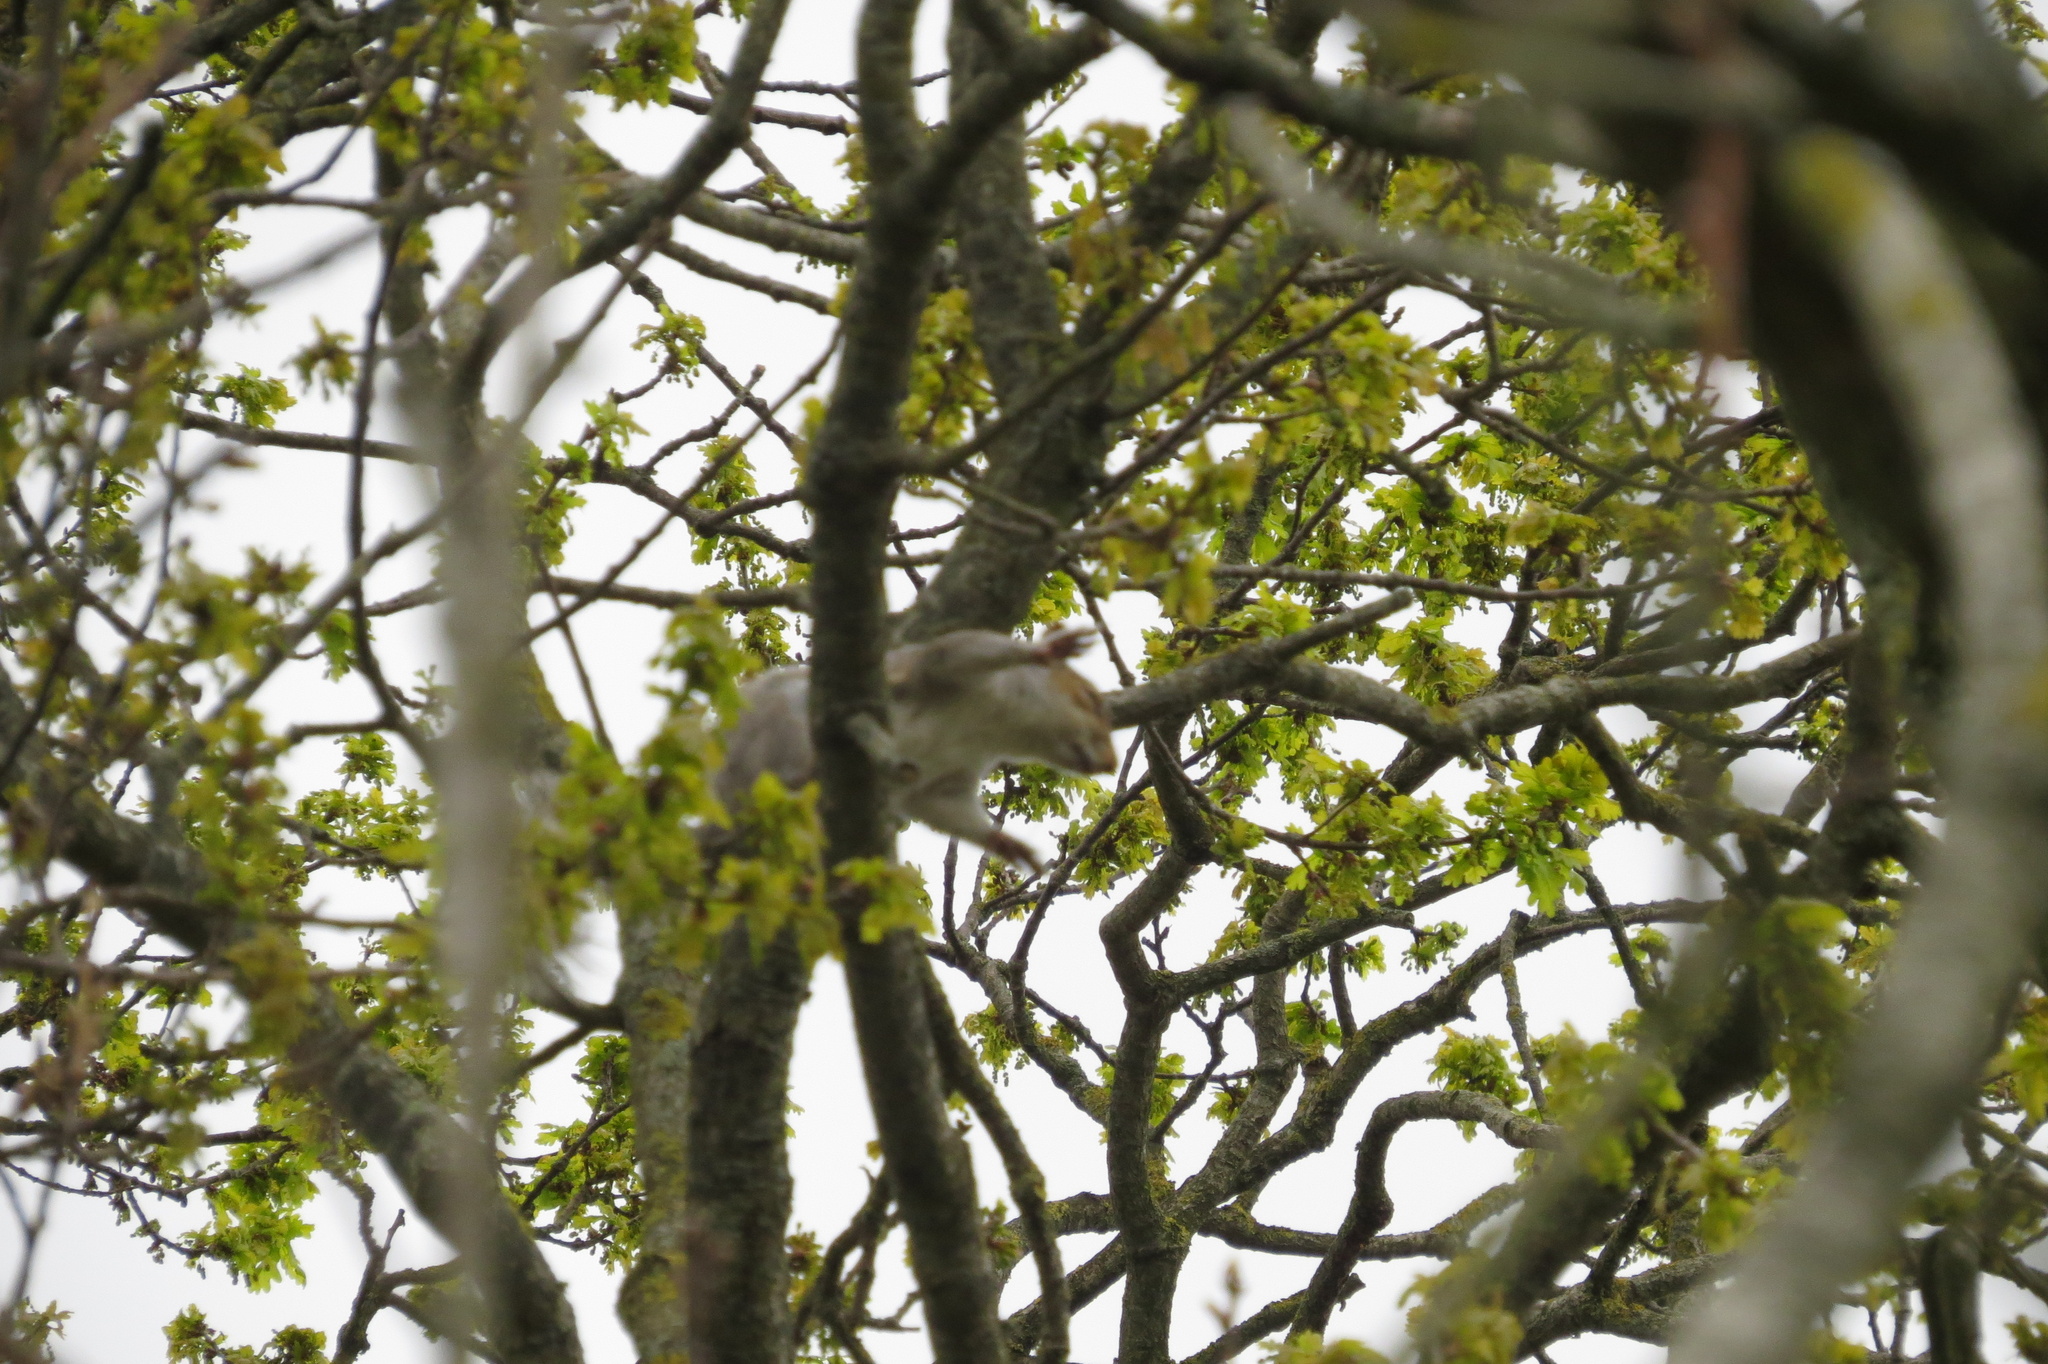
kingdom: Animalia
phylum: Chordata
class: Mammalia
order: Rodentia
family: Sciuridae
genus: Sciurus
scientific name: Sciurus carolinensis
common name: Eastern gray squirrel
